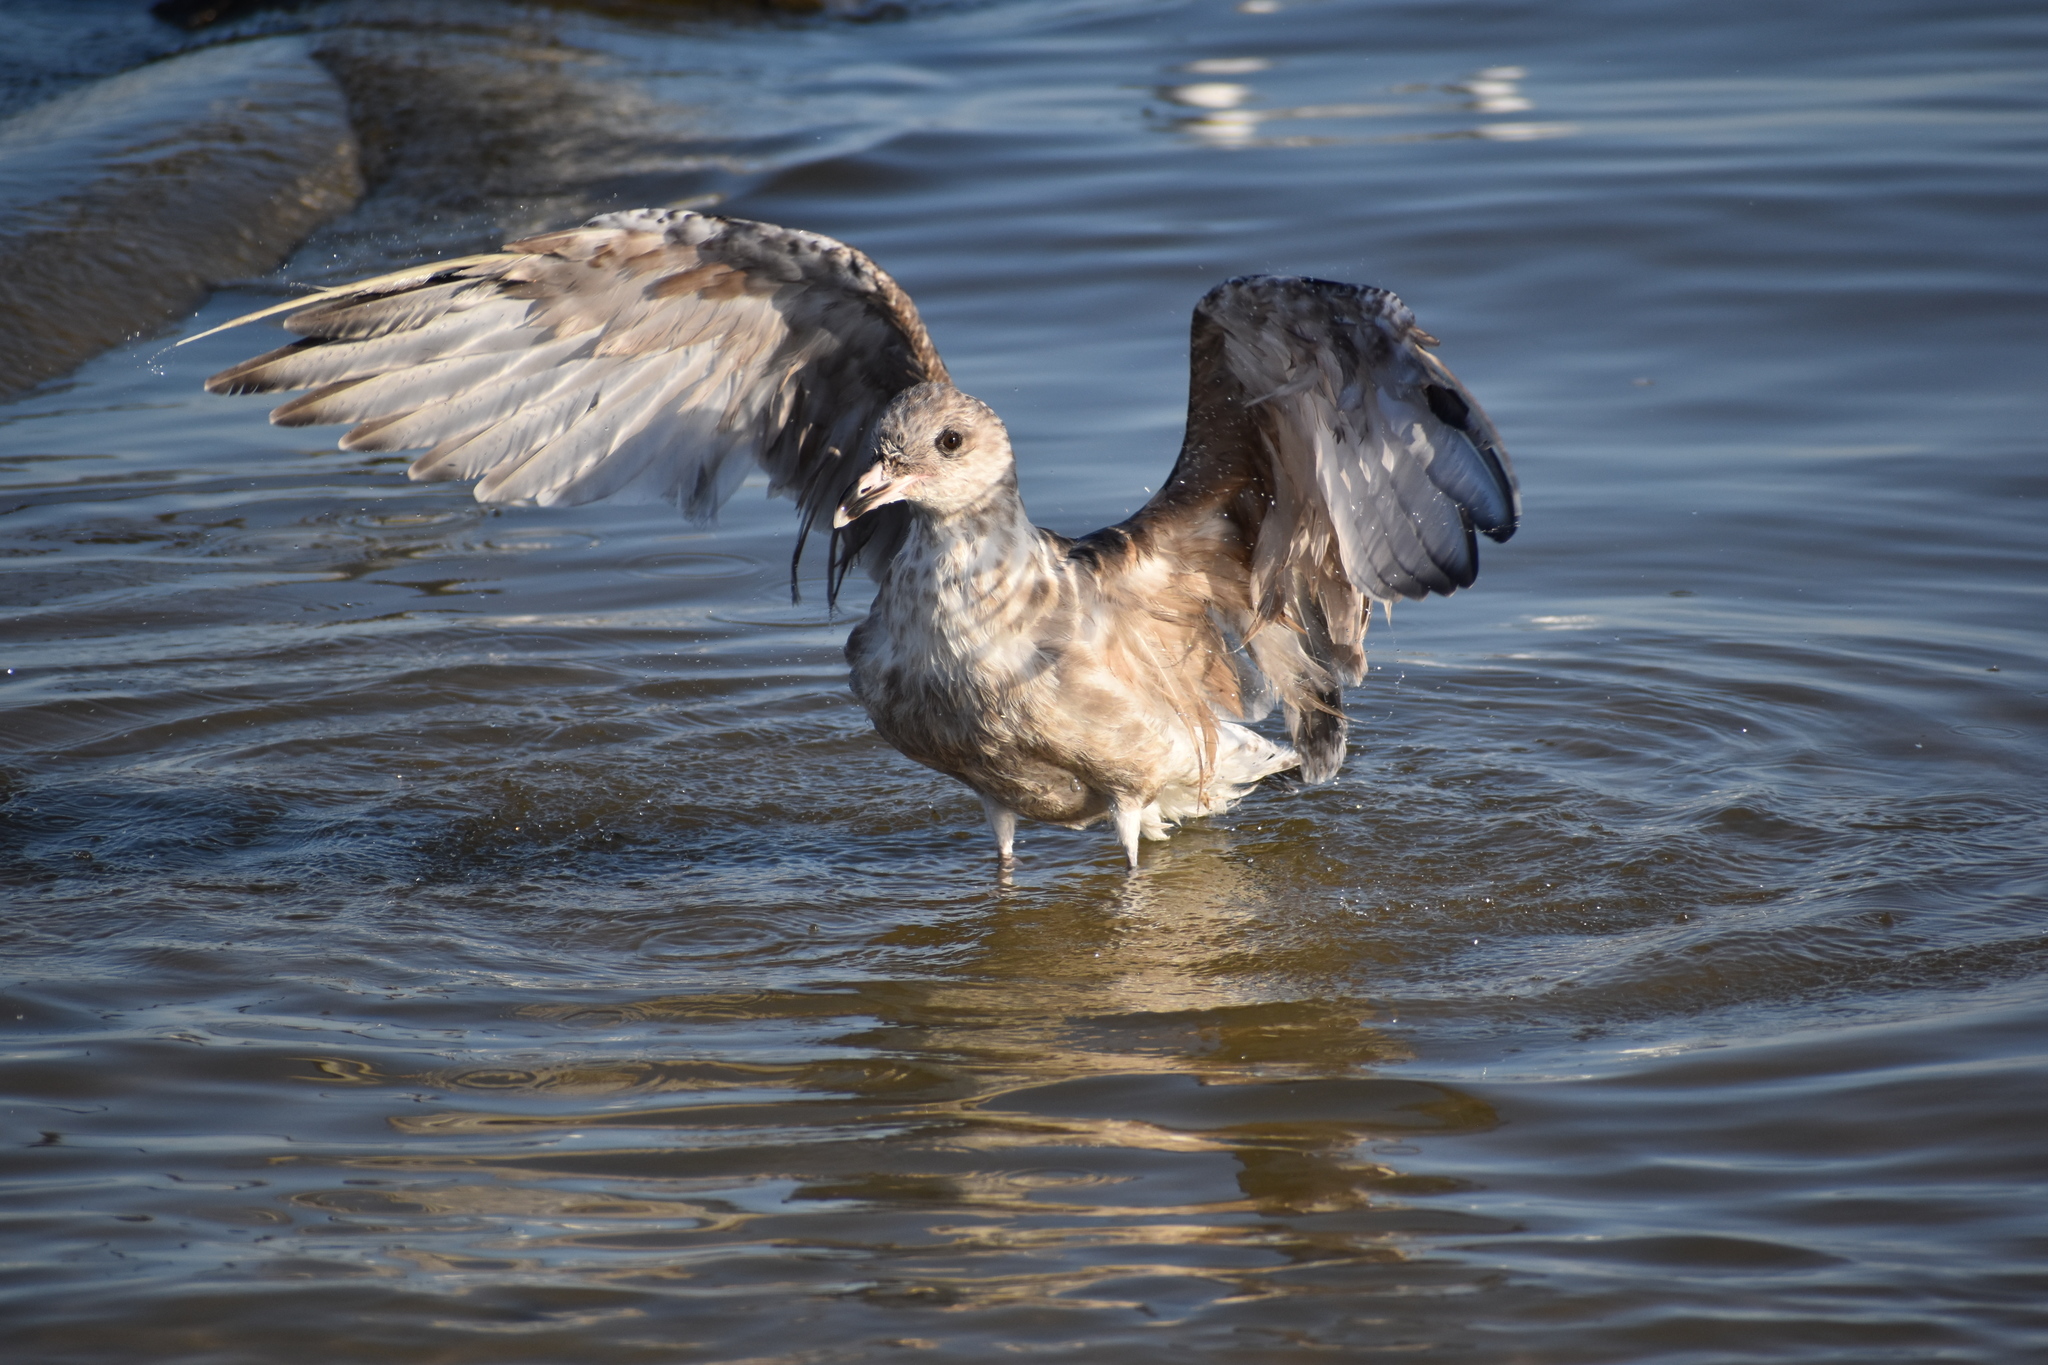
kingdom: Animalia
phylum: Chordata
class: Aves
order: Charadriiformes
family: Laridae
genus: Larus
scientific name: Larus argentatus
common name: Herring gull
